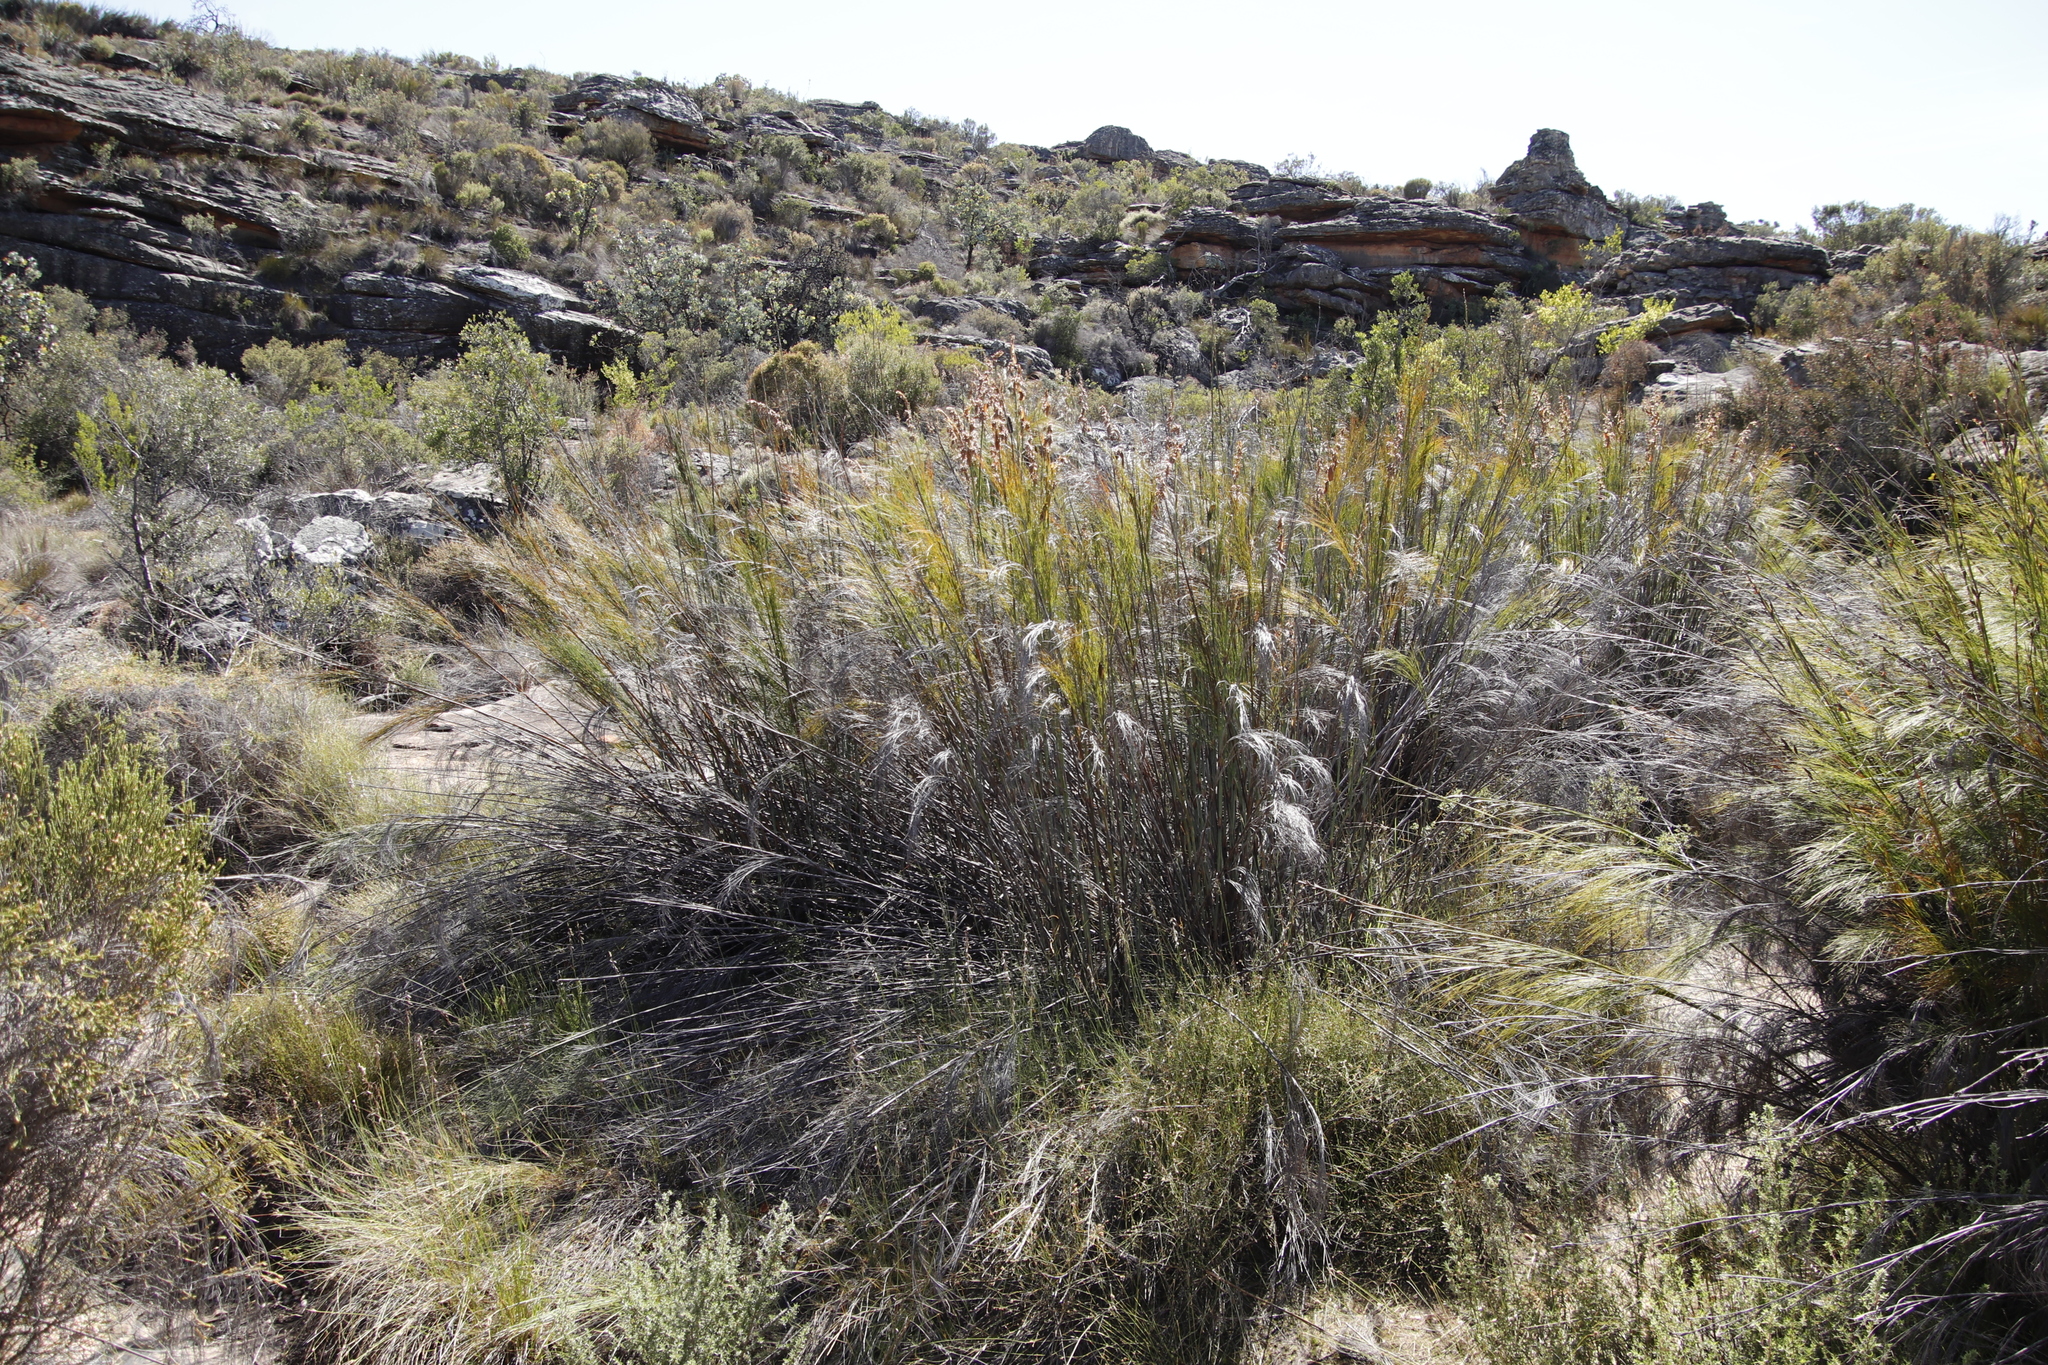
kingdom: Plantae
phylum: Tracheophyta
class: Liliopsida
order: Poales
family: Restionaceae
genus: Cannomois
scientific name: Cannomois robusta
